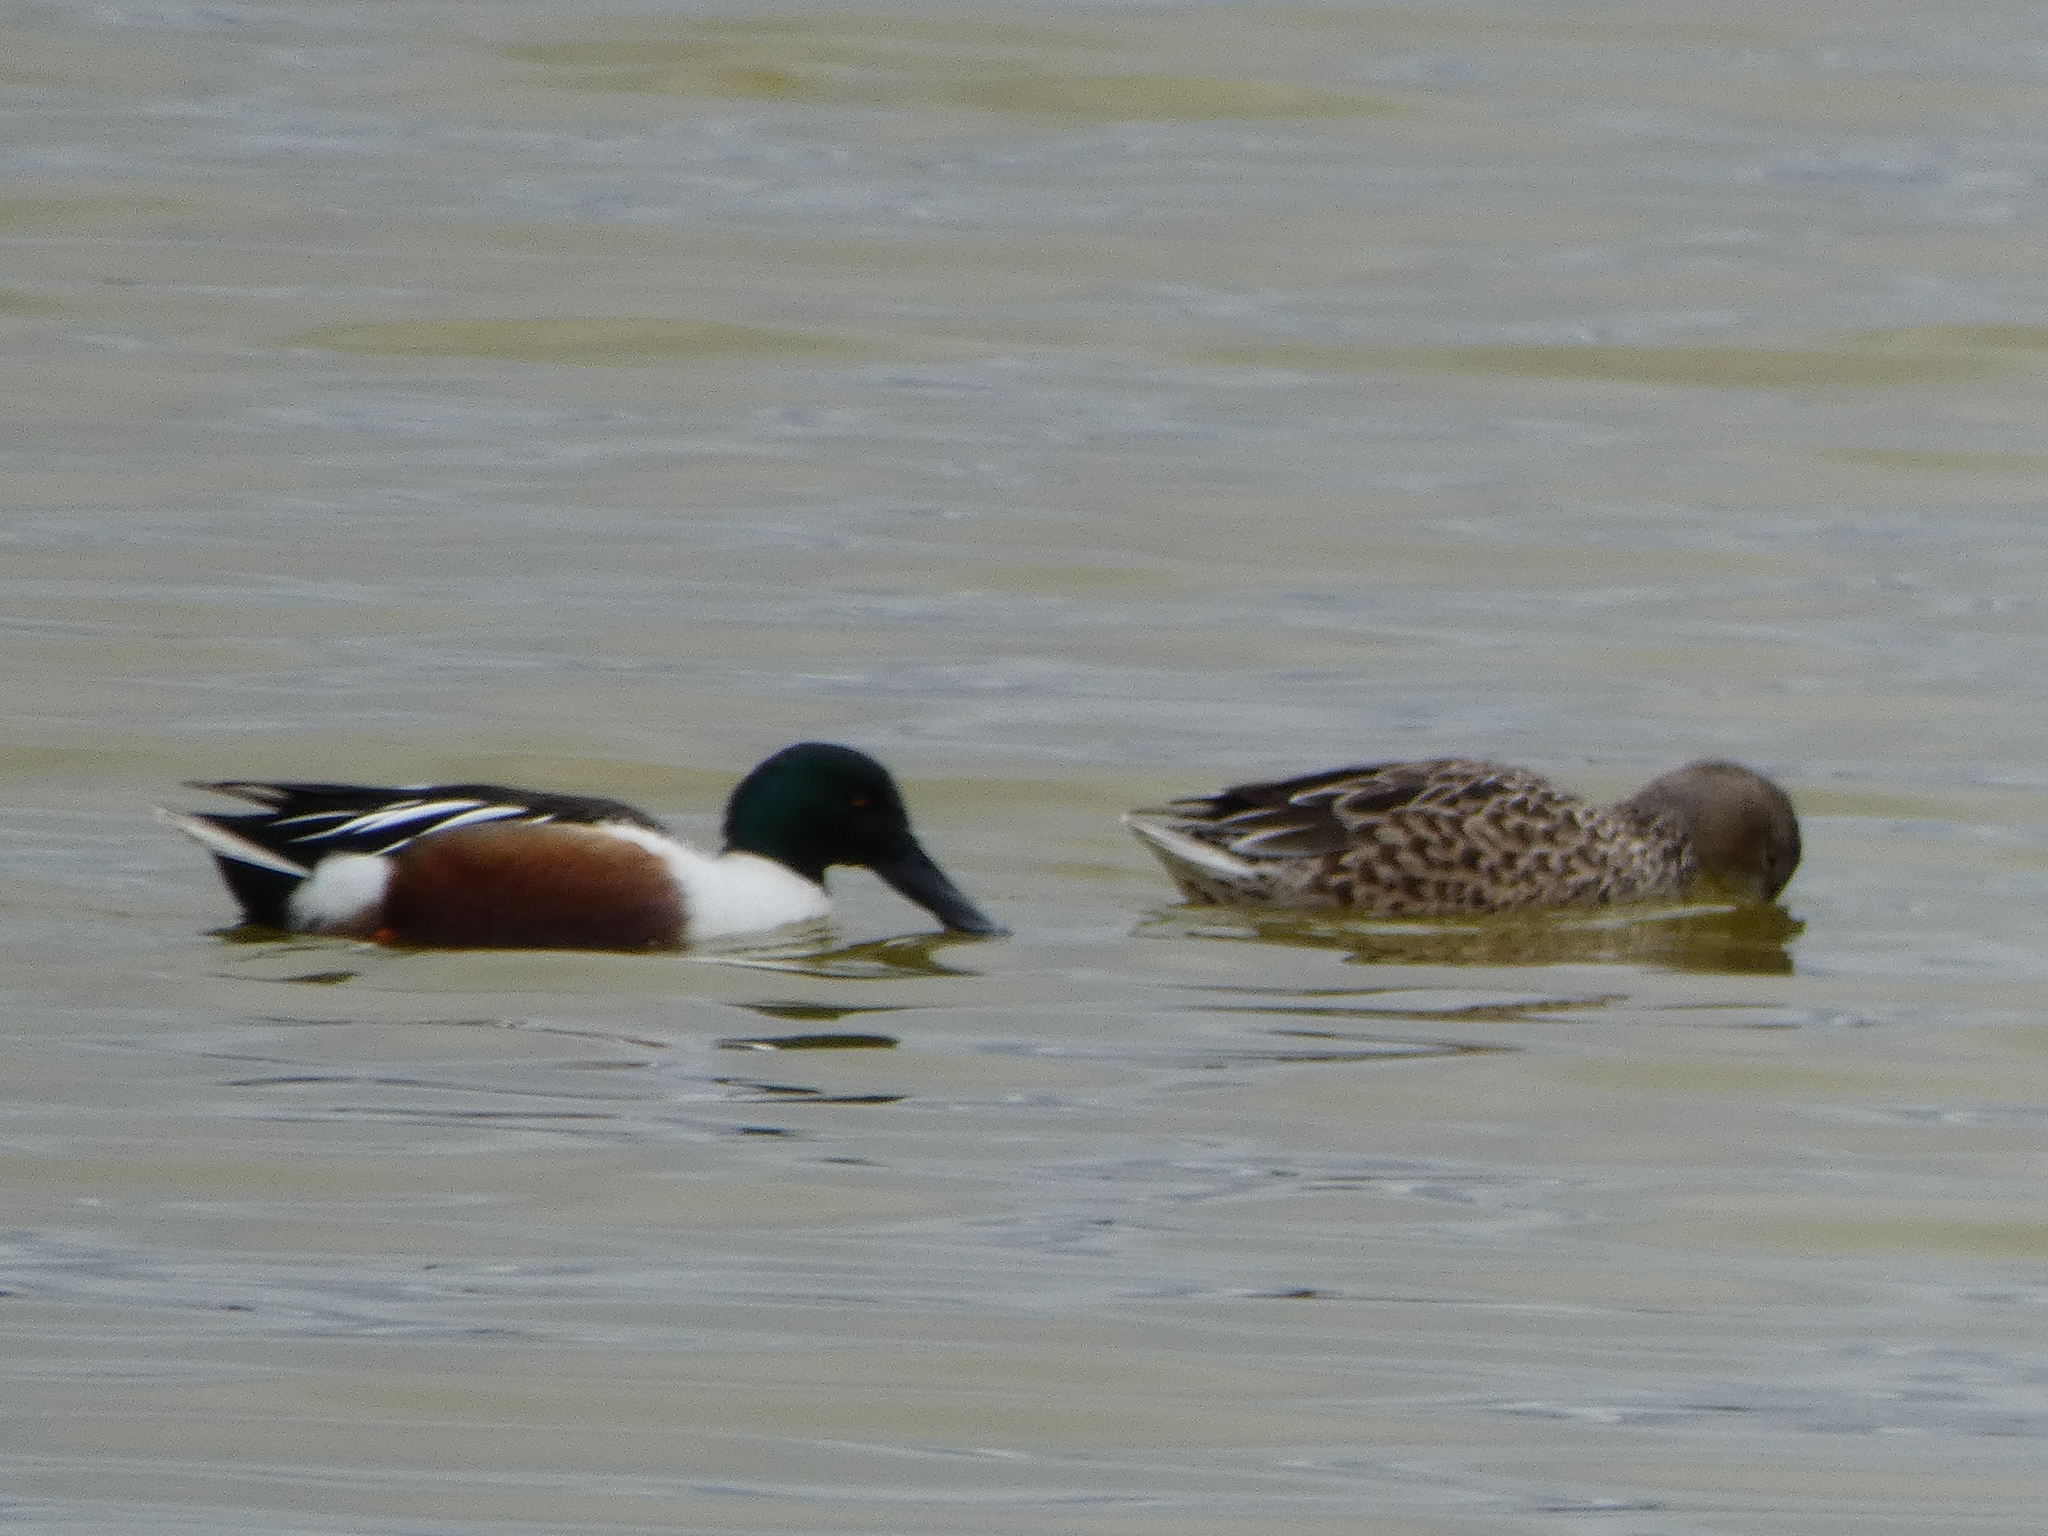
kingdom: Animalia
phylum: Chordata
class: Aves
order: Anseriformes
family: Anatidae
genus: Spatula
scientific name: Spatula clypeata
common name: Northern shoveler
